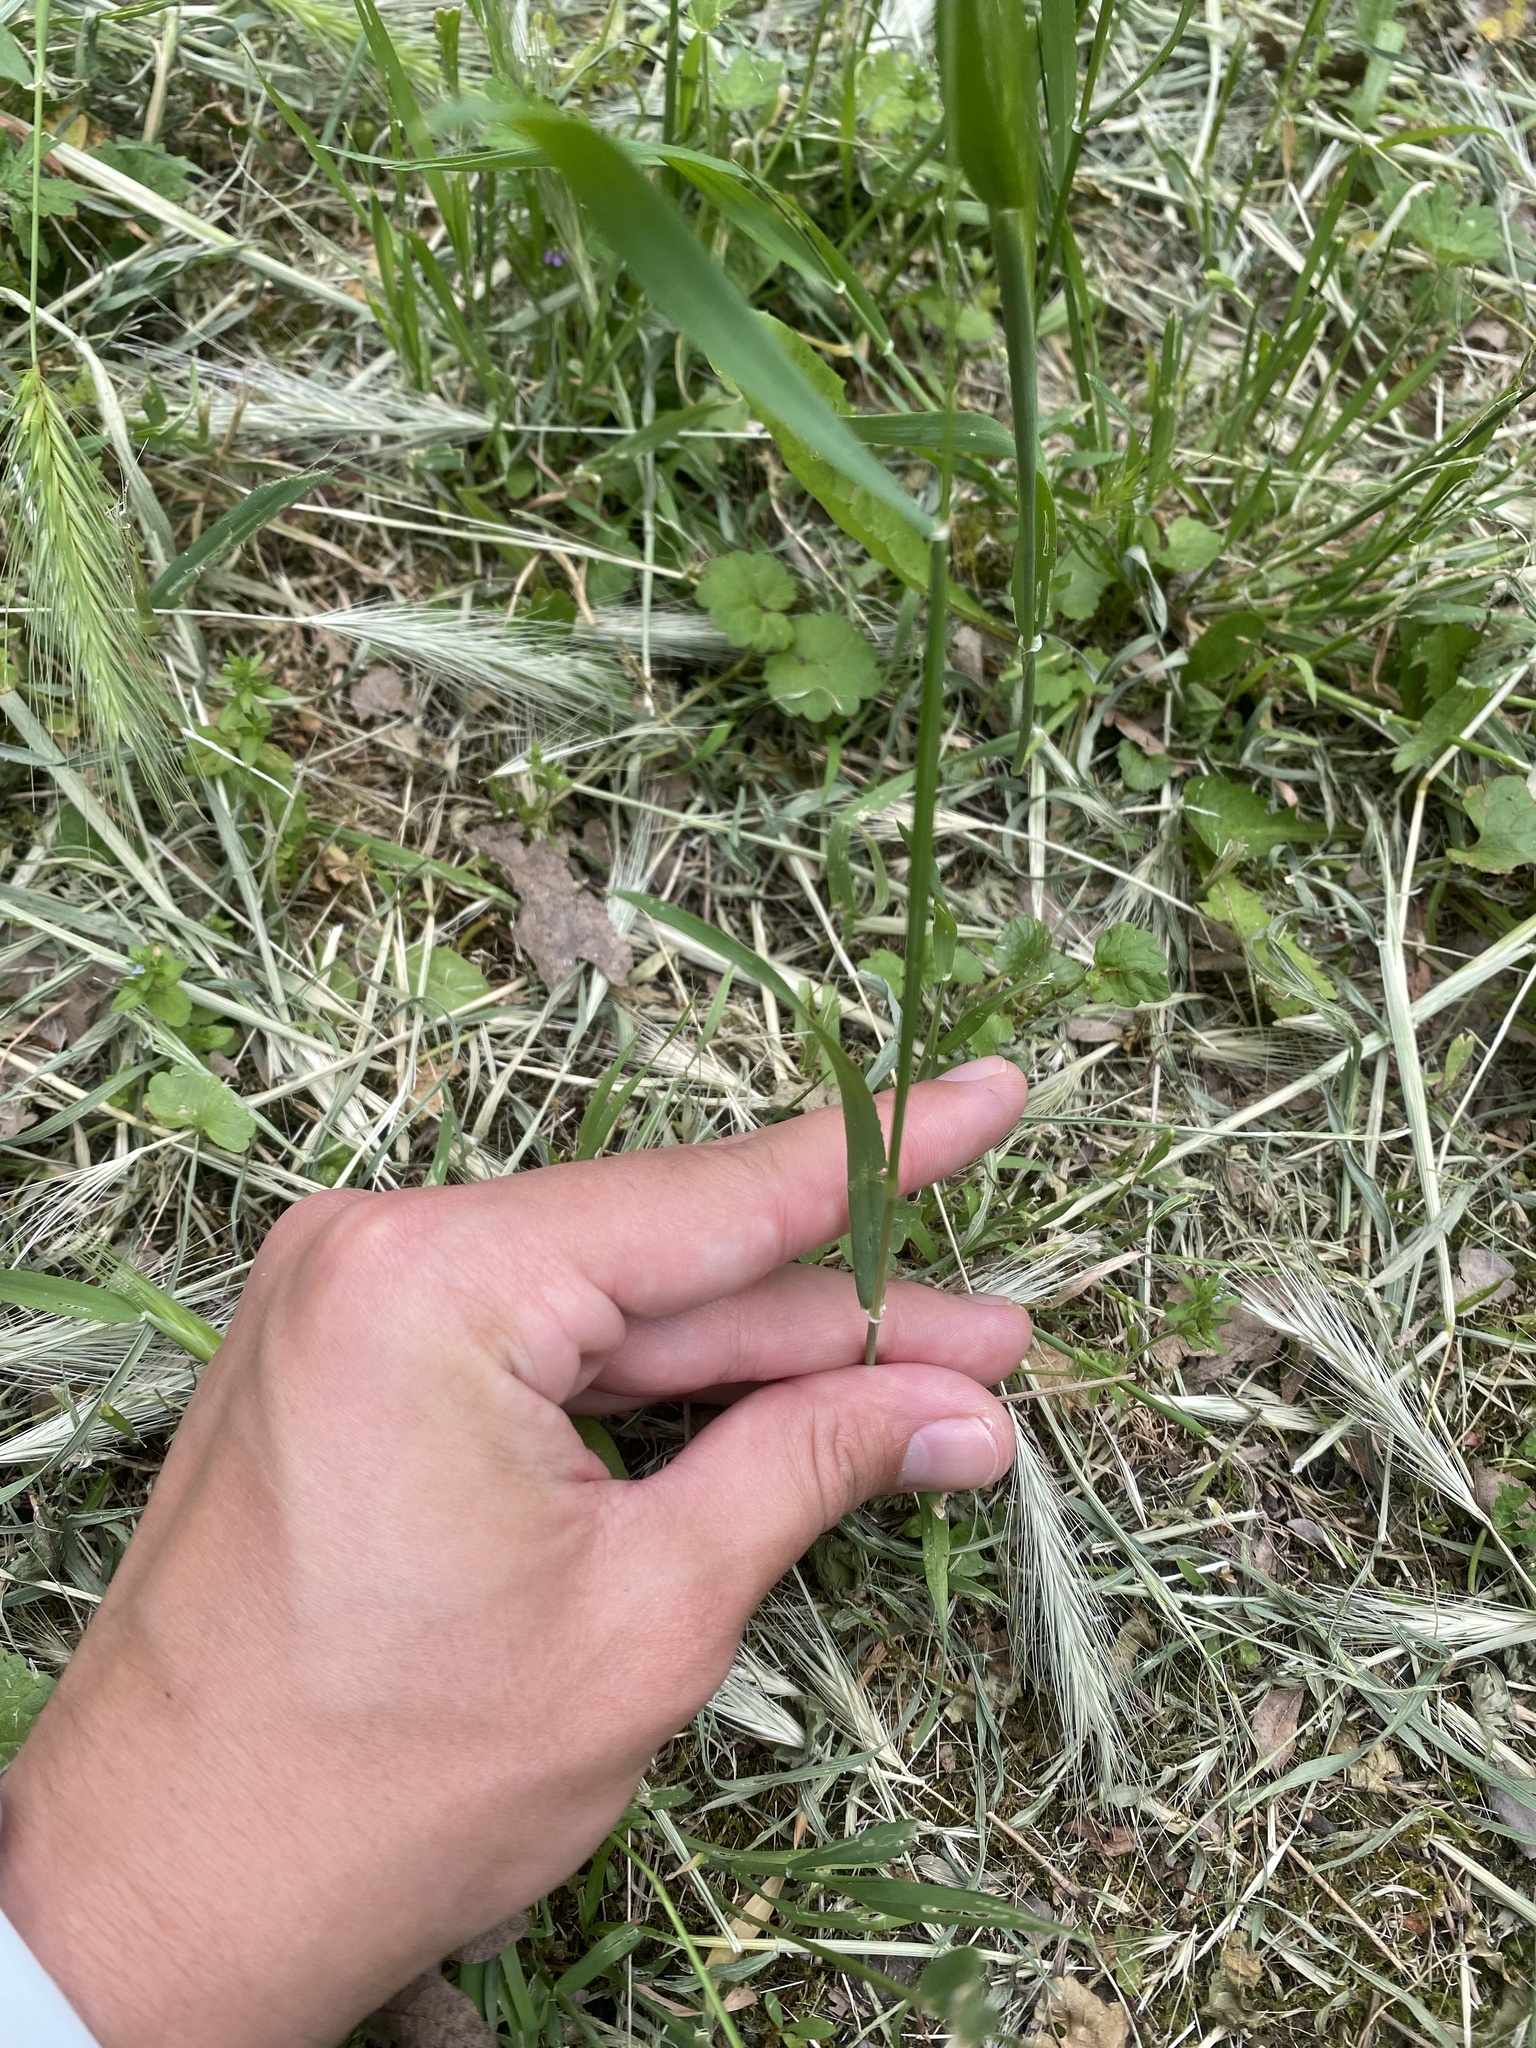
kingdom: Plantae
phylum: Tracheophyta
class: Liliopsida
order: Poales
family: Poaceae
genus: Hordeum
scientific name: Hordeum murinum
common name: Wall barley
